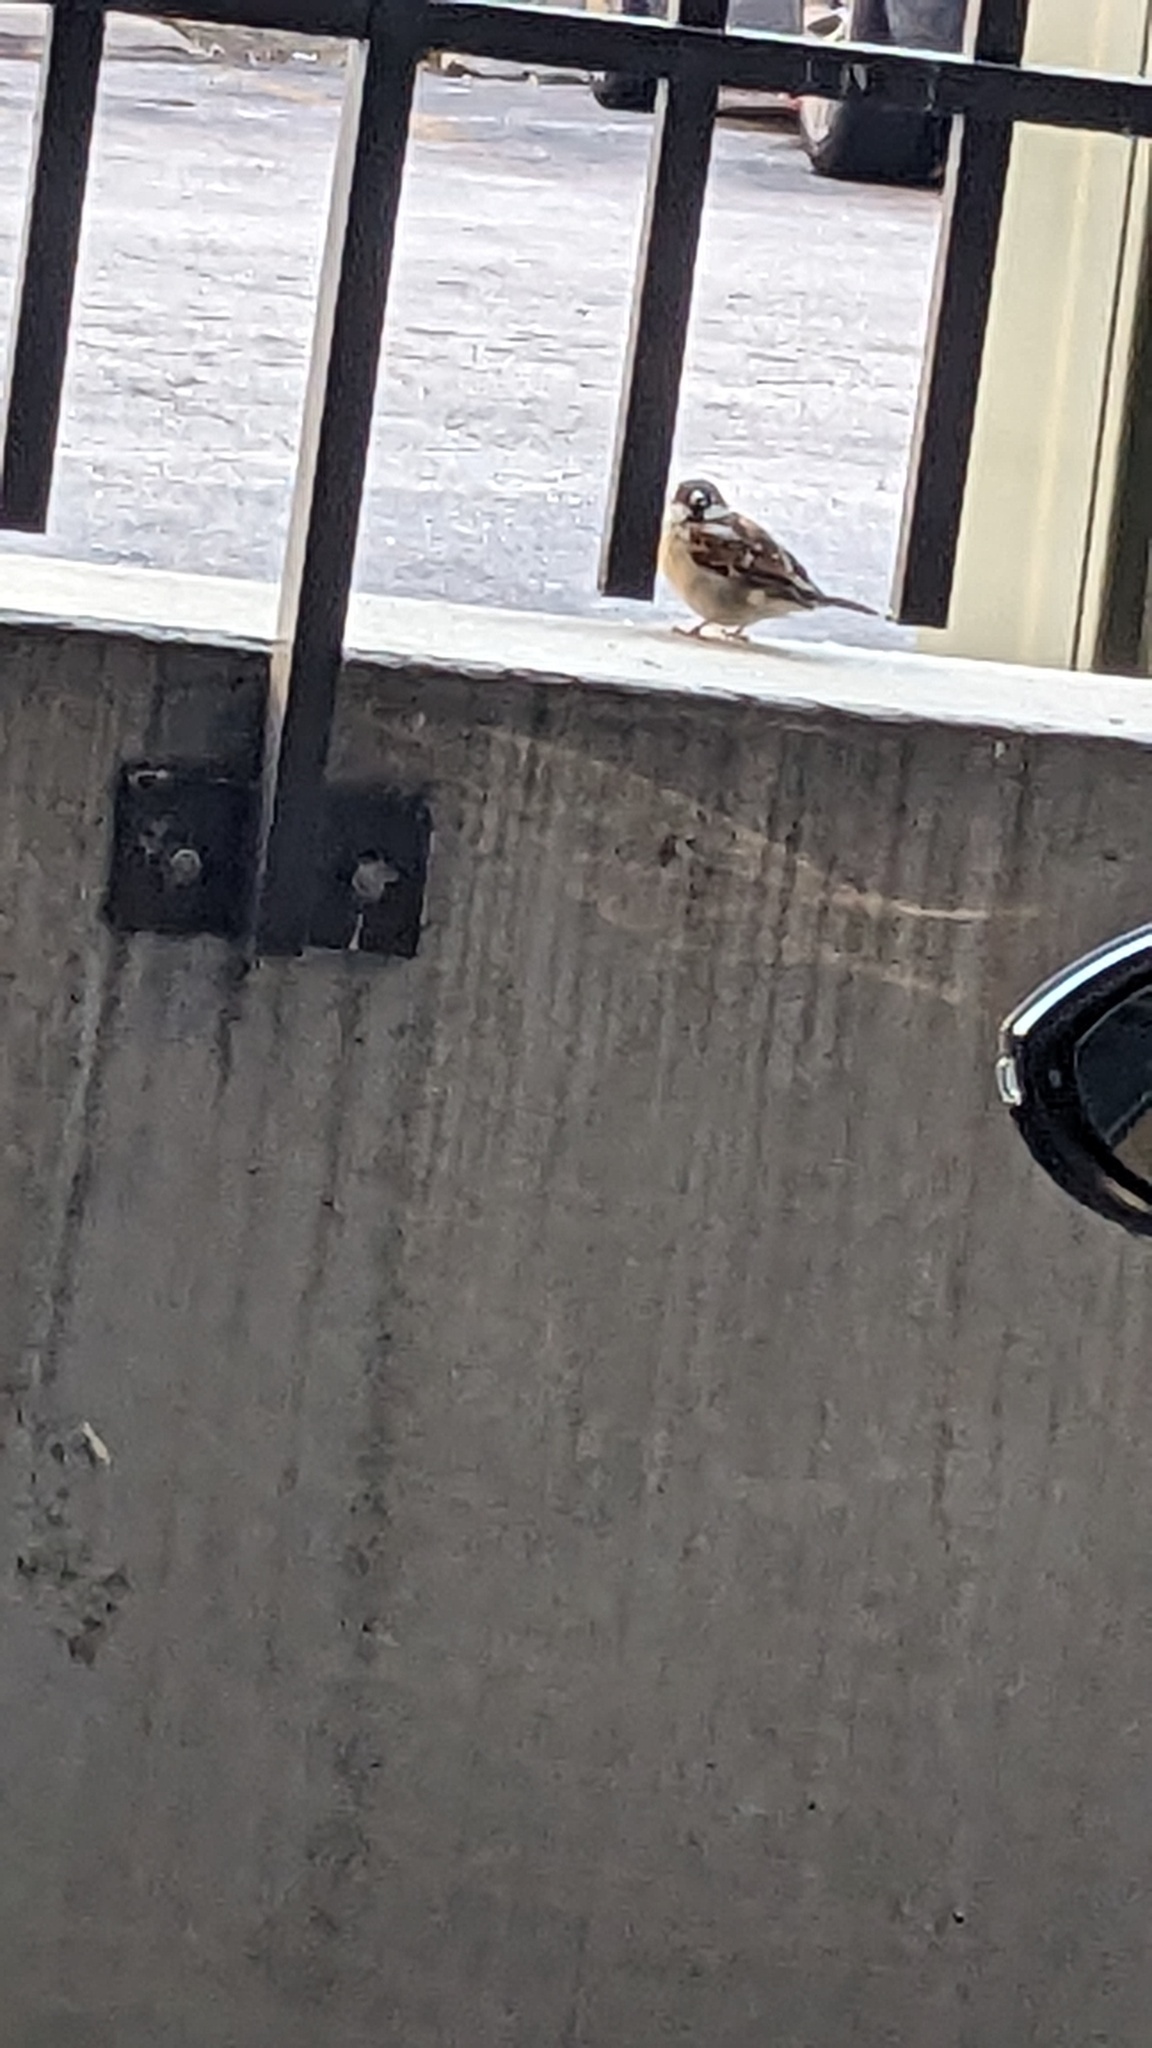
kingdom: Animalia
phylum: Chordata
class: Aves
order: Passeriformes
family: Passeridae
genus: Passer
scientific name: Passer domesticus
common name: House sparrow
